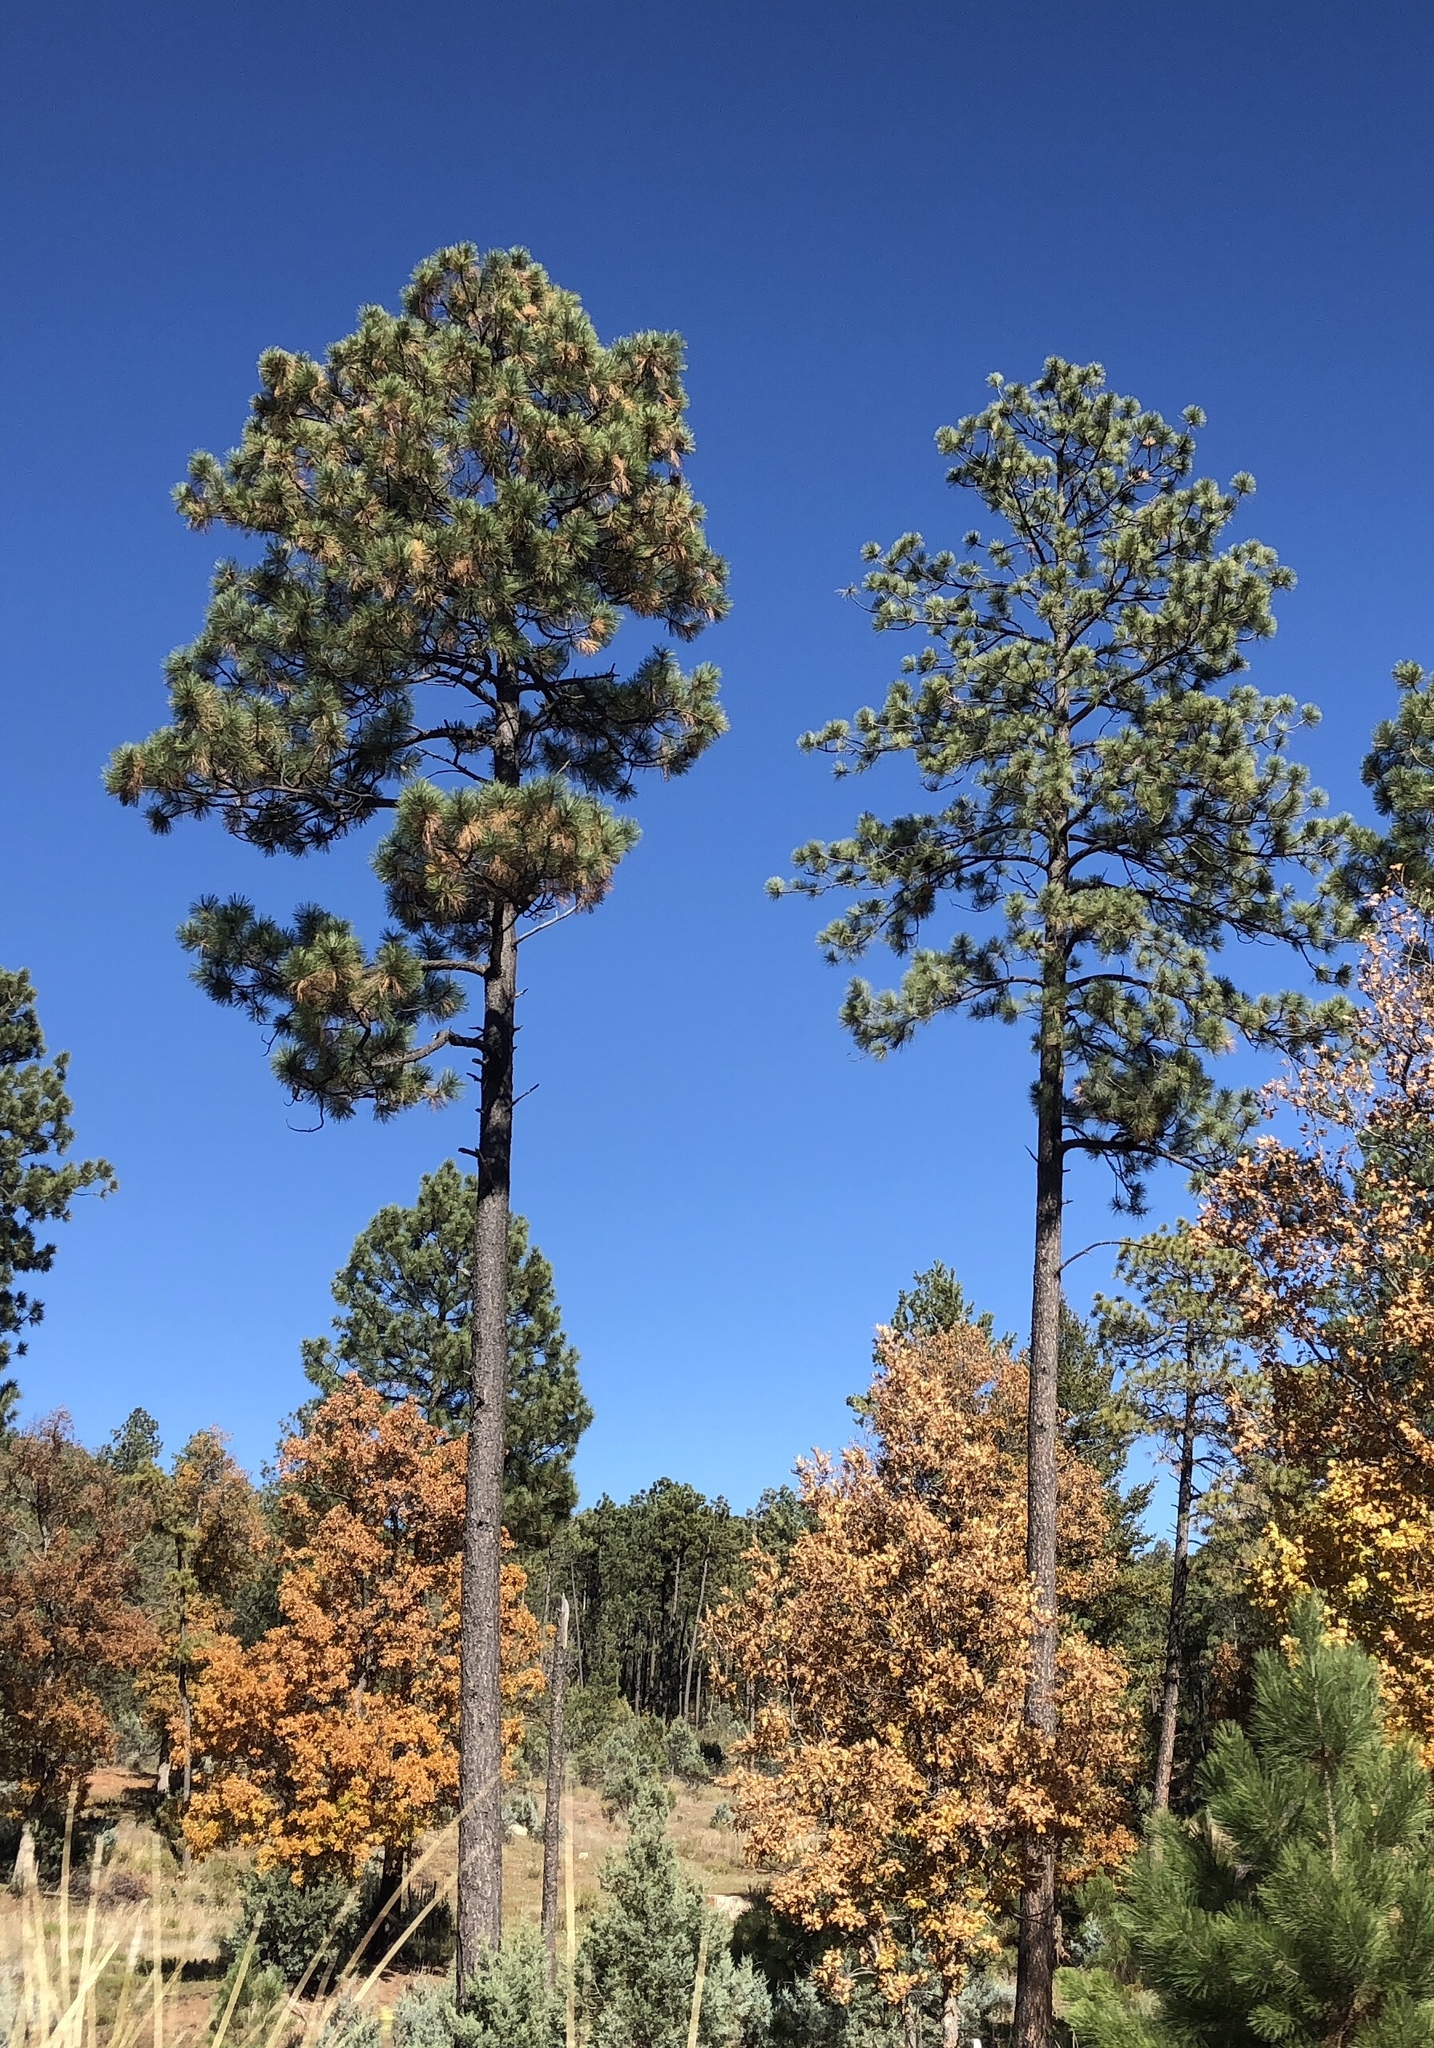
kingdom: Plantae
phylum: Tracheophyta
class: Pinopsida
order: Pinales
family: Pinaceae
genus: Pinus
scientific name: Pinus ponderosa
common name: Western yellow-pine
